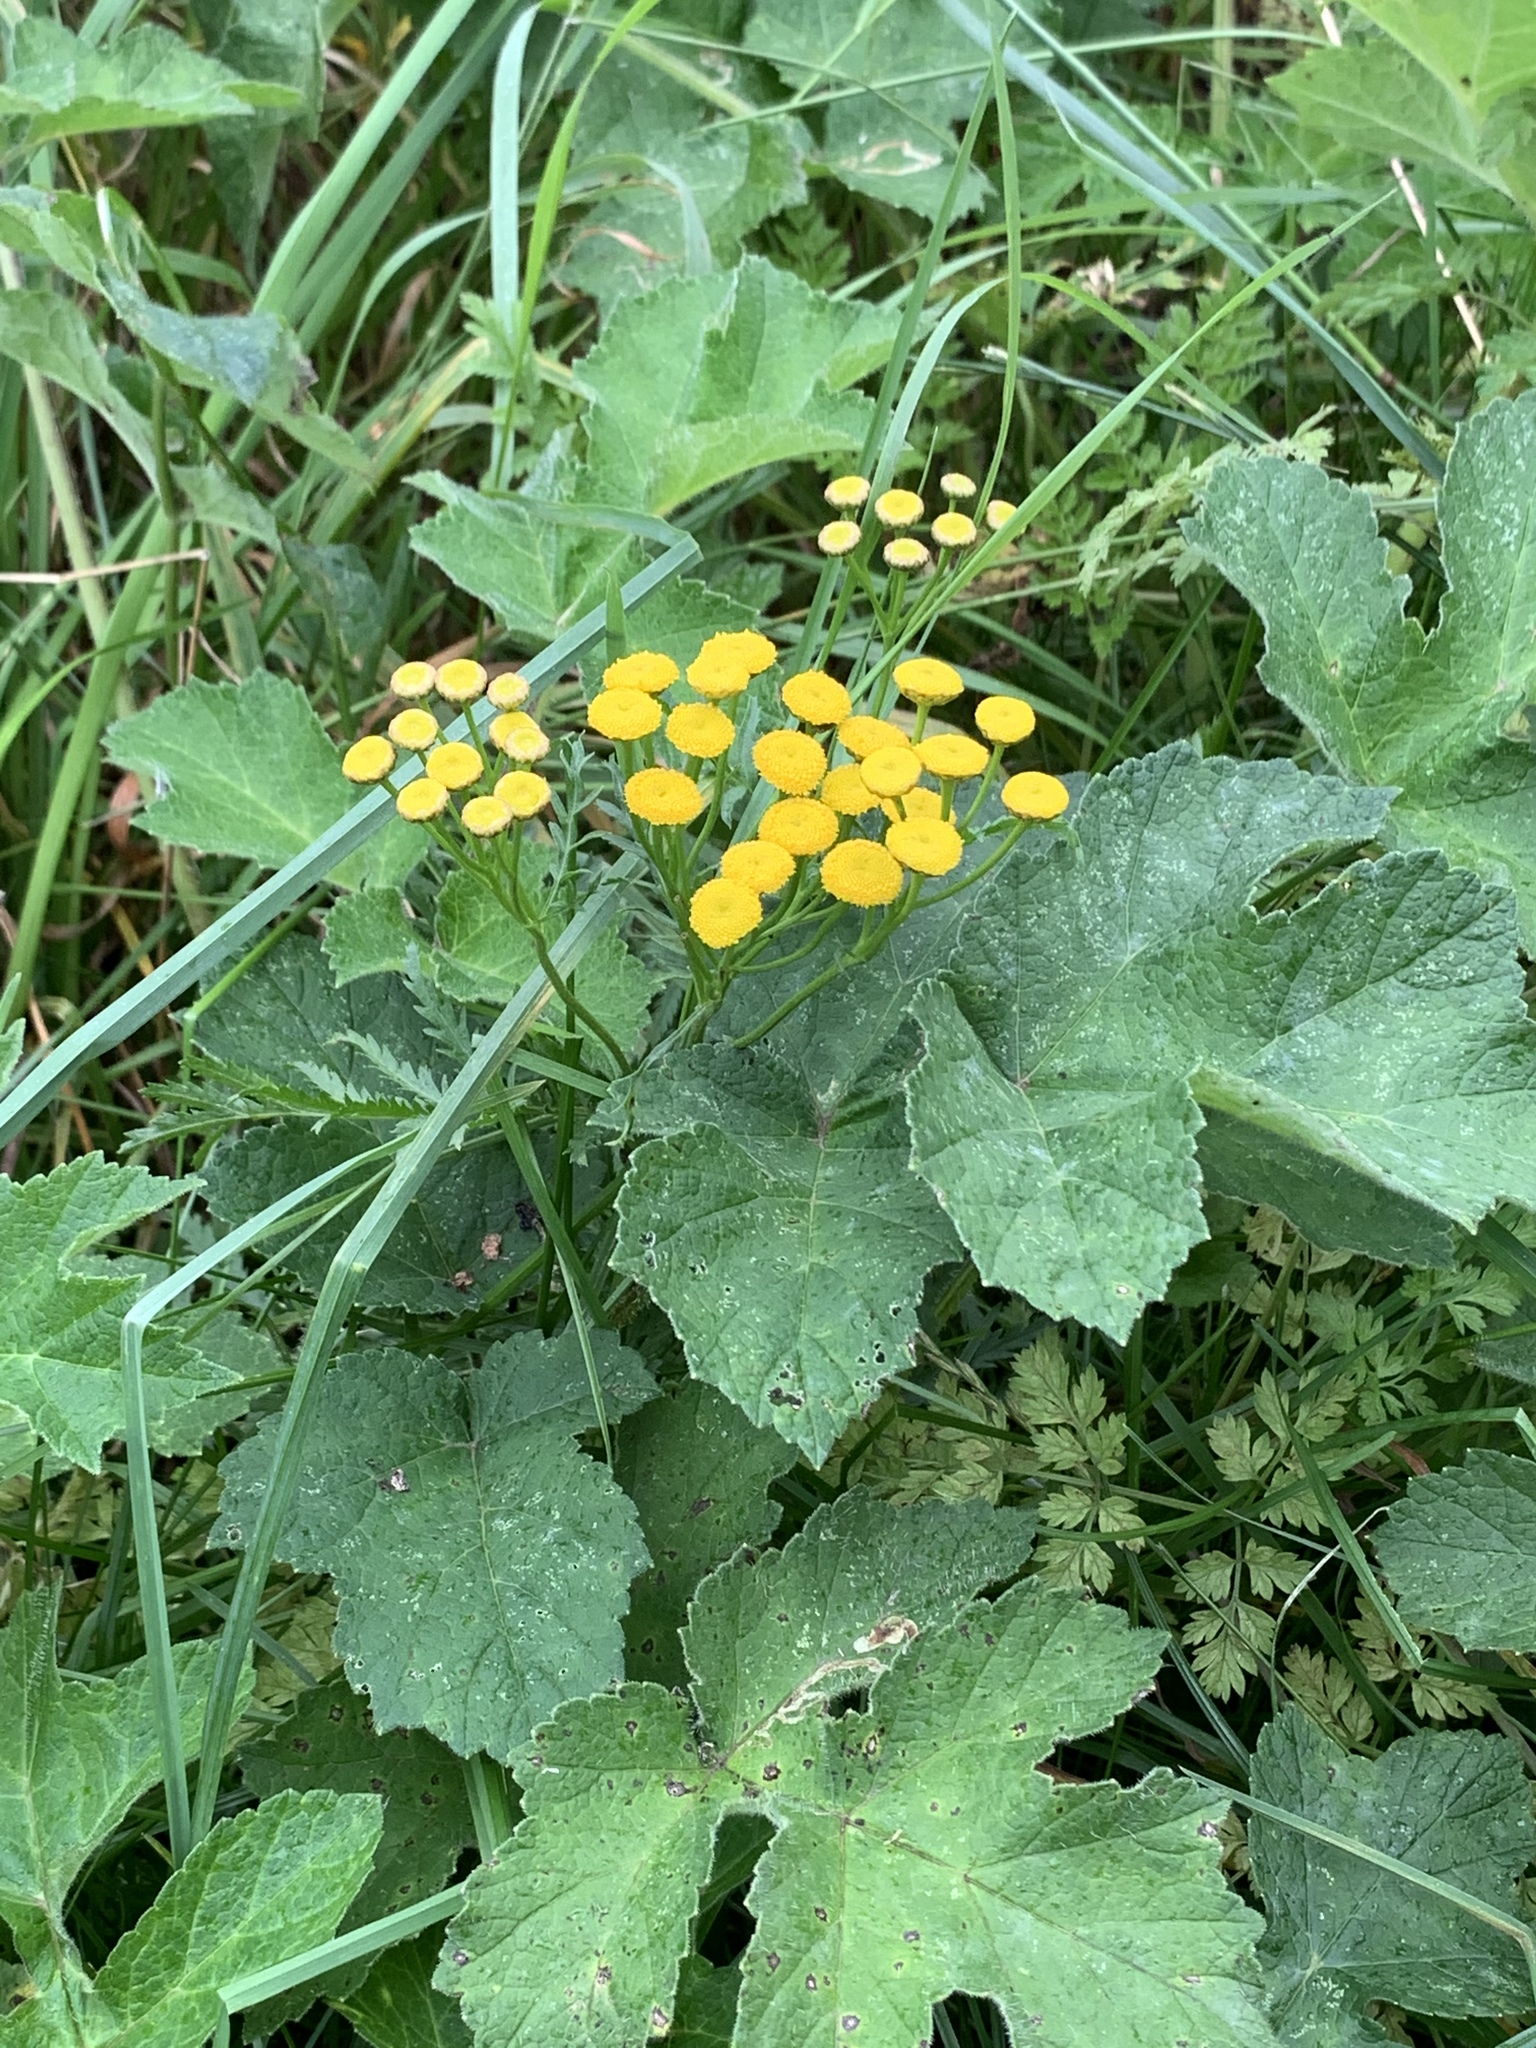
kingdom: Plantae
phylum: Tracheophyta
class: Magnoliopsida
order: Asterales
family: Asteraceae
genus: Tanacetum
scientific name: Tanacetum vulgare
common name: Common tansy
